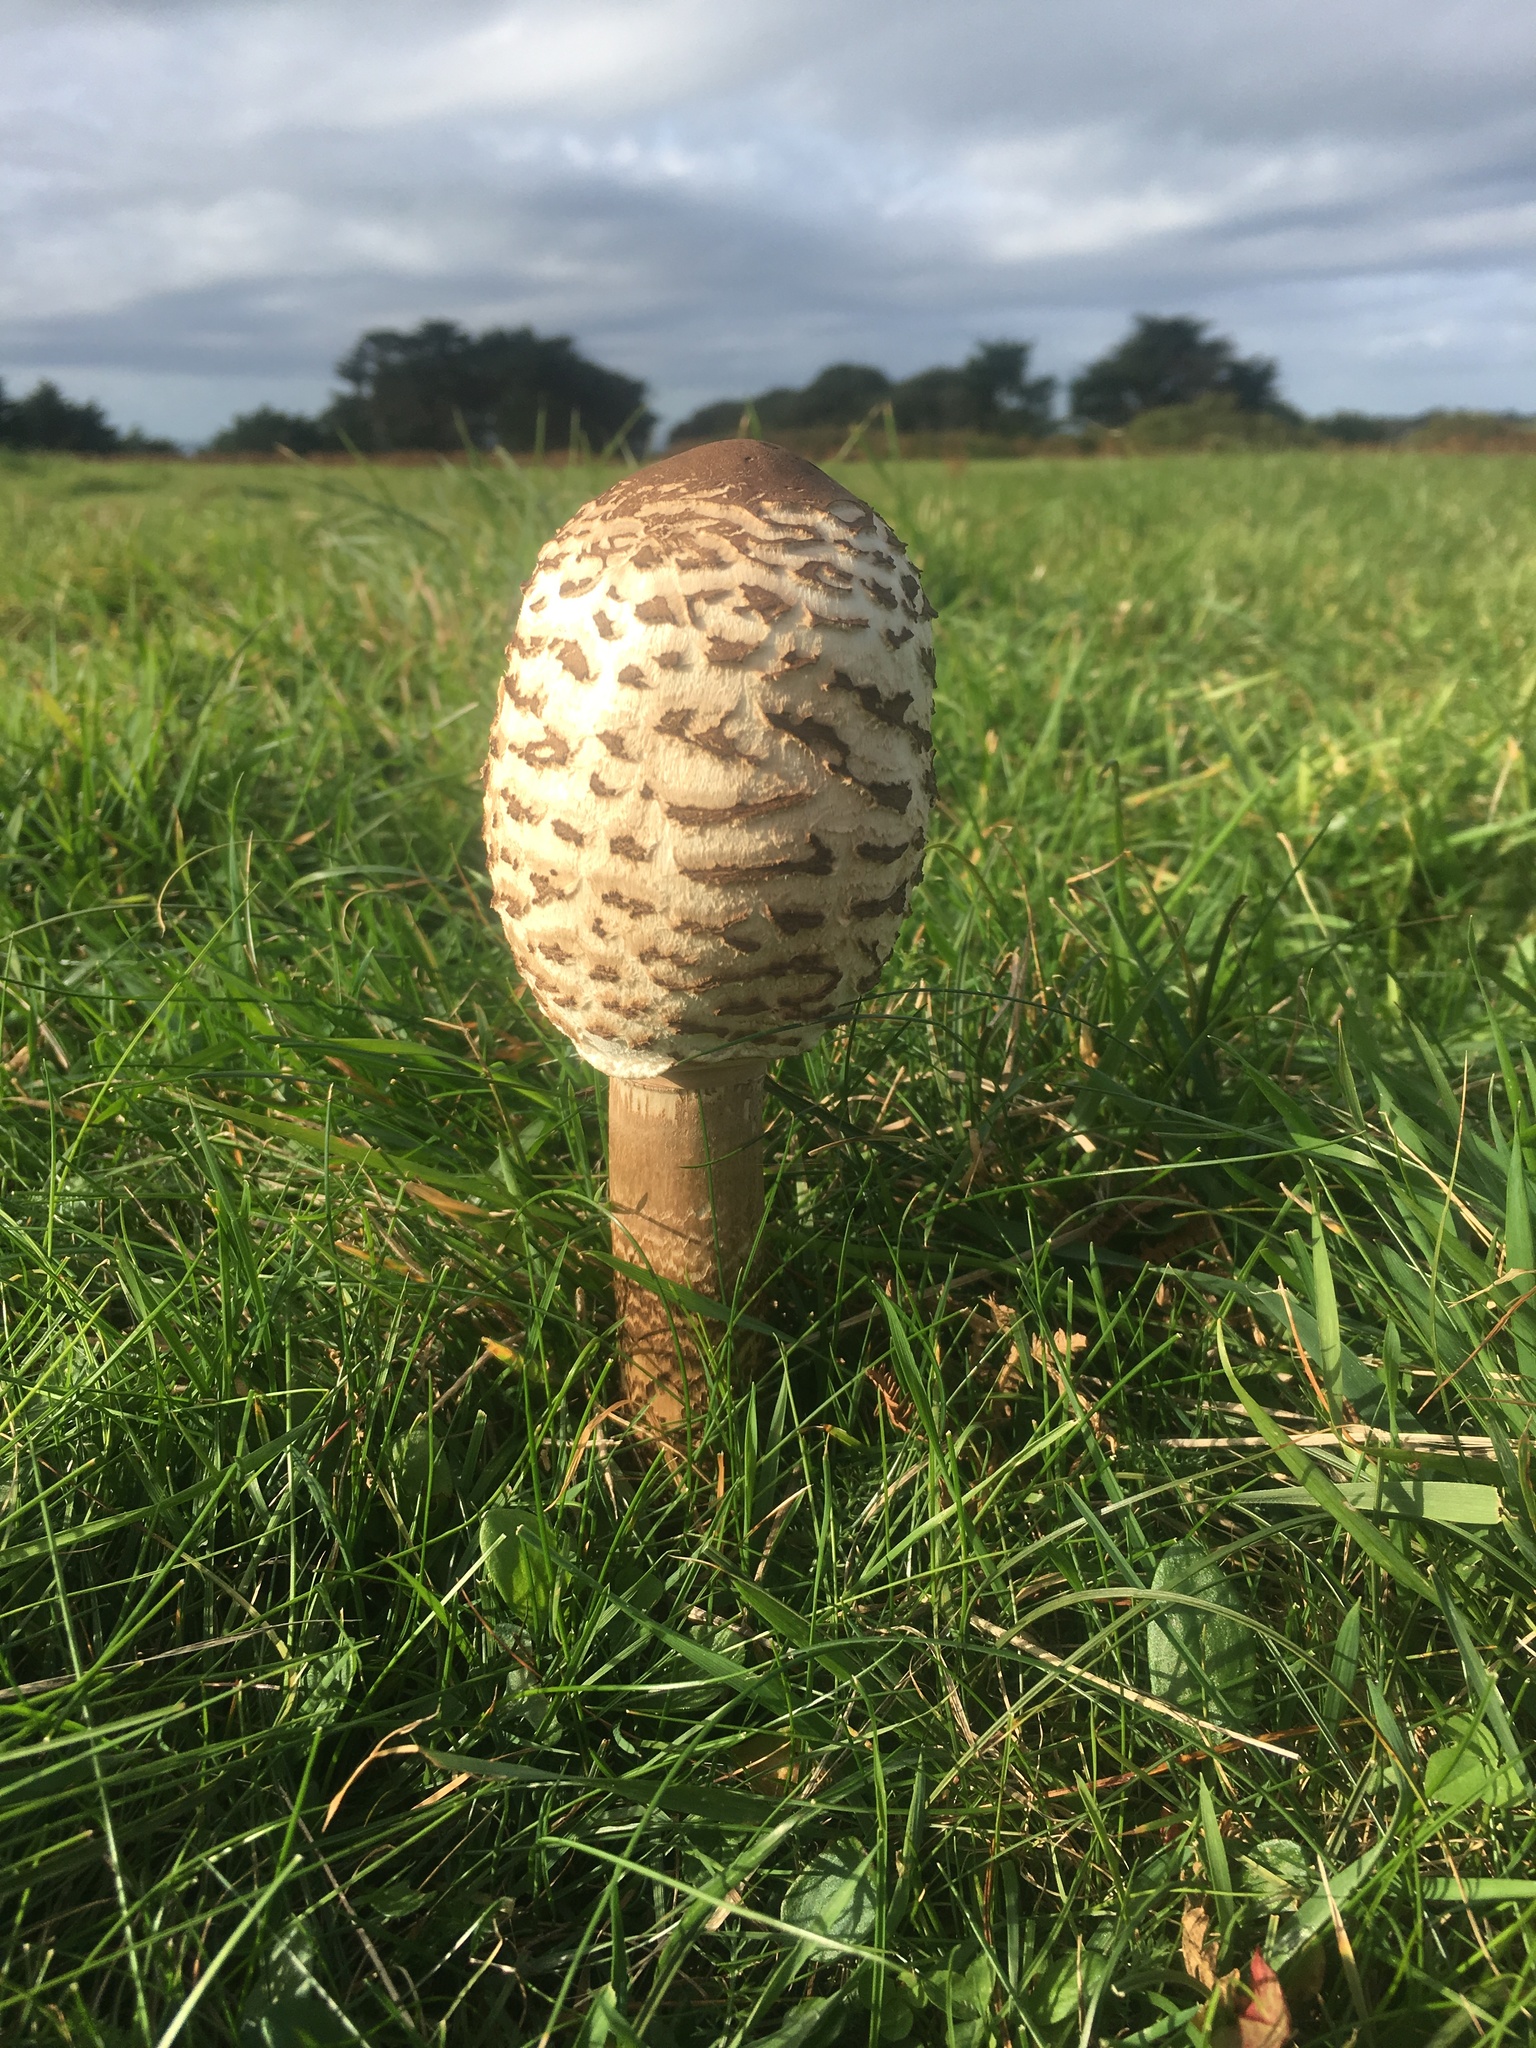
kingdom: Fungi
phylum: Basidiomycota
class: Agaricomycetes
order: Agaricales
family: Agaricaceae
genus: Macrolepiota
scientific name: Macrolepiota procera
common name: Parasol
